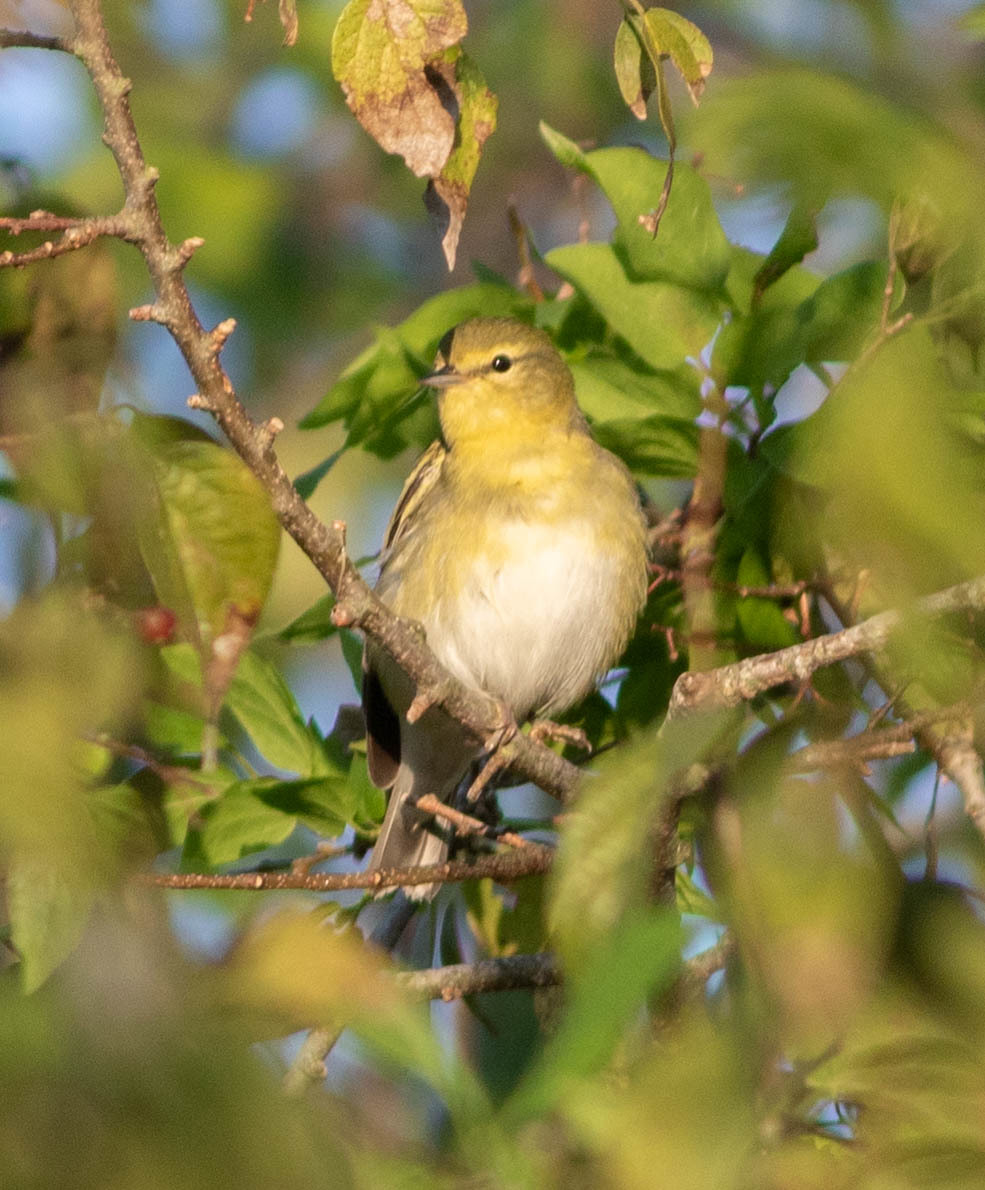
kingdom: Animalia
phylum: Chordata
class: Aves
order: Passeriformes
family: Parulidae
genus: Leiothlypis
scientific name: Leiothlypis peregrina
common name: Tennessee warbler
